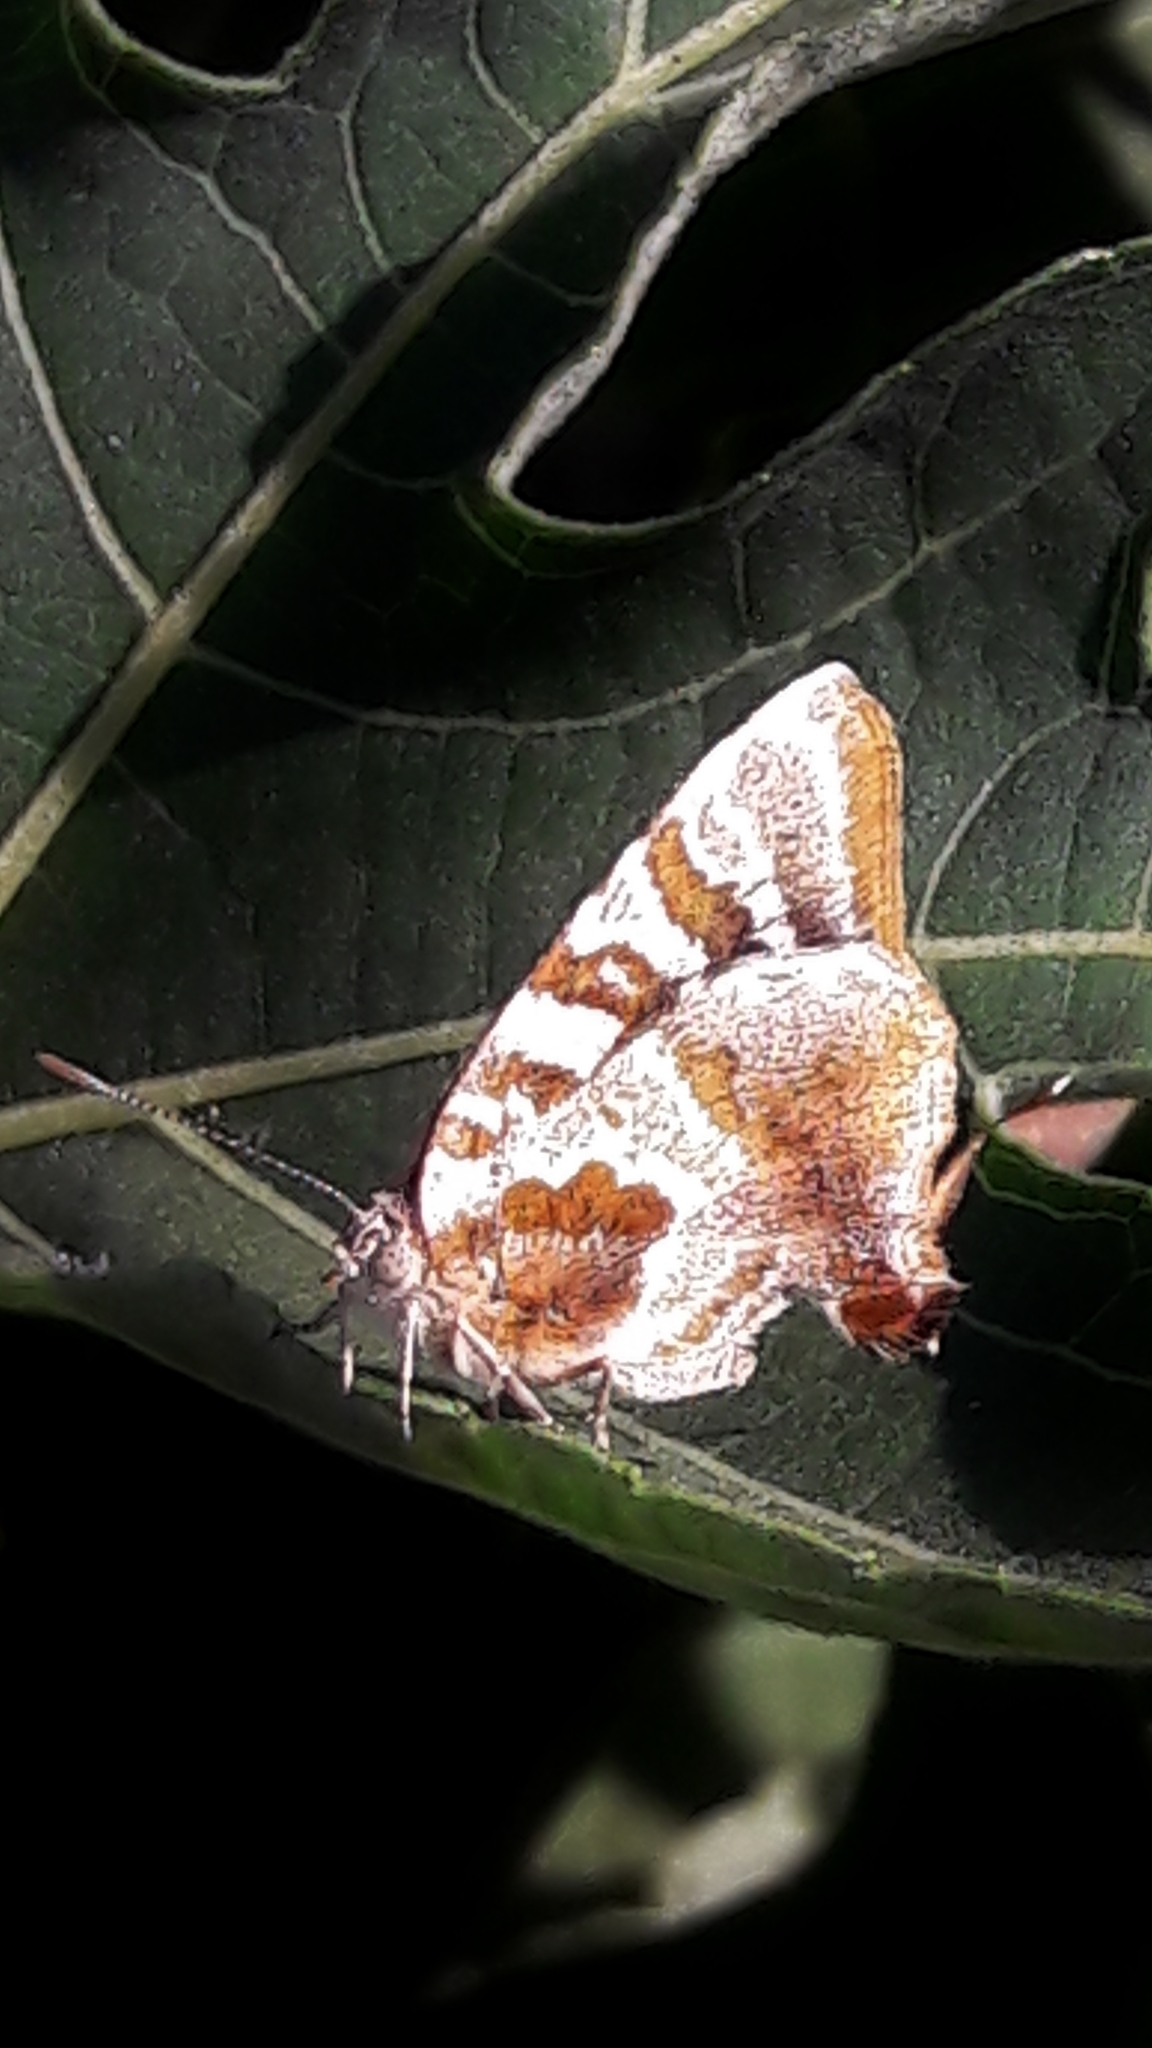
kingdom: Animalia
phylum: Arthropoda
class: Insecta
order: Lepidoptera
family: Lycaenidae
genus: Arawacus
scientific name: Arawacus ellida
